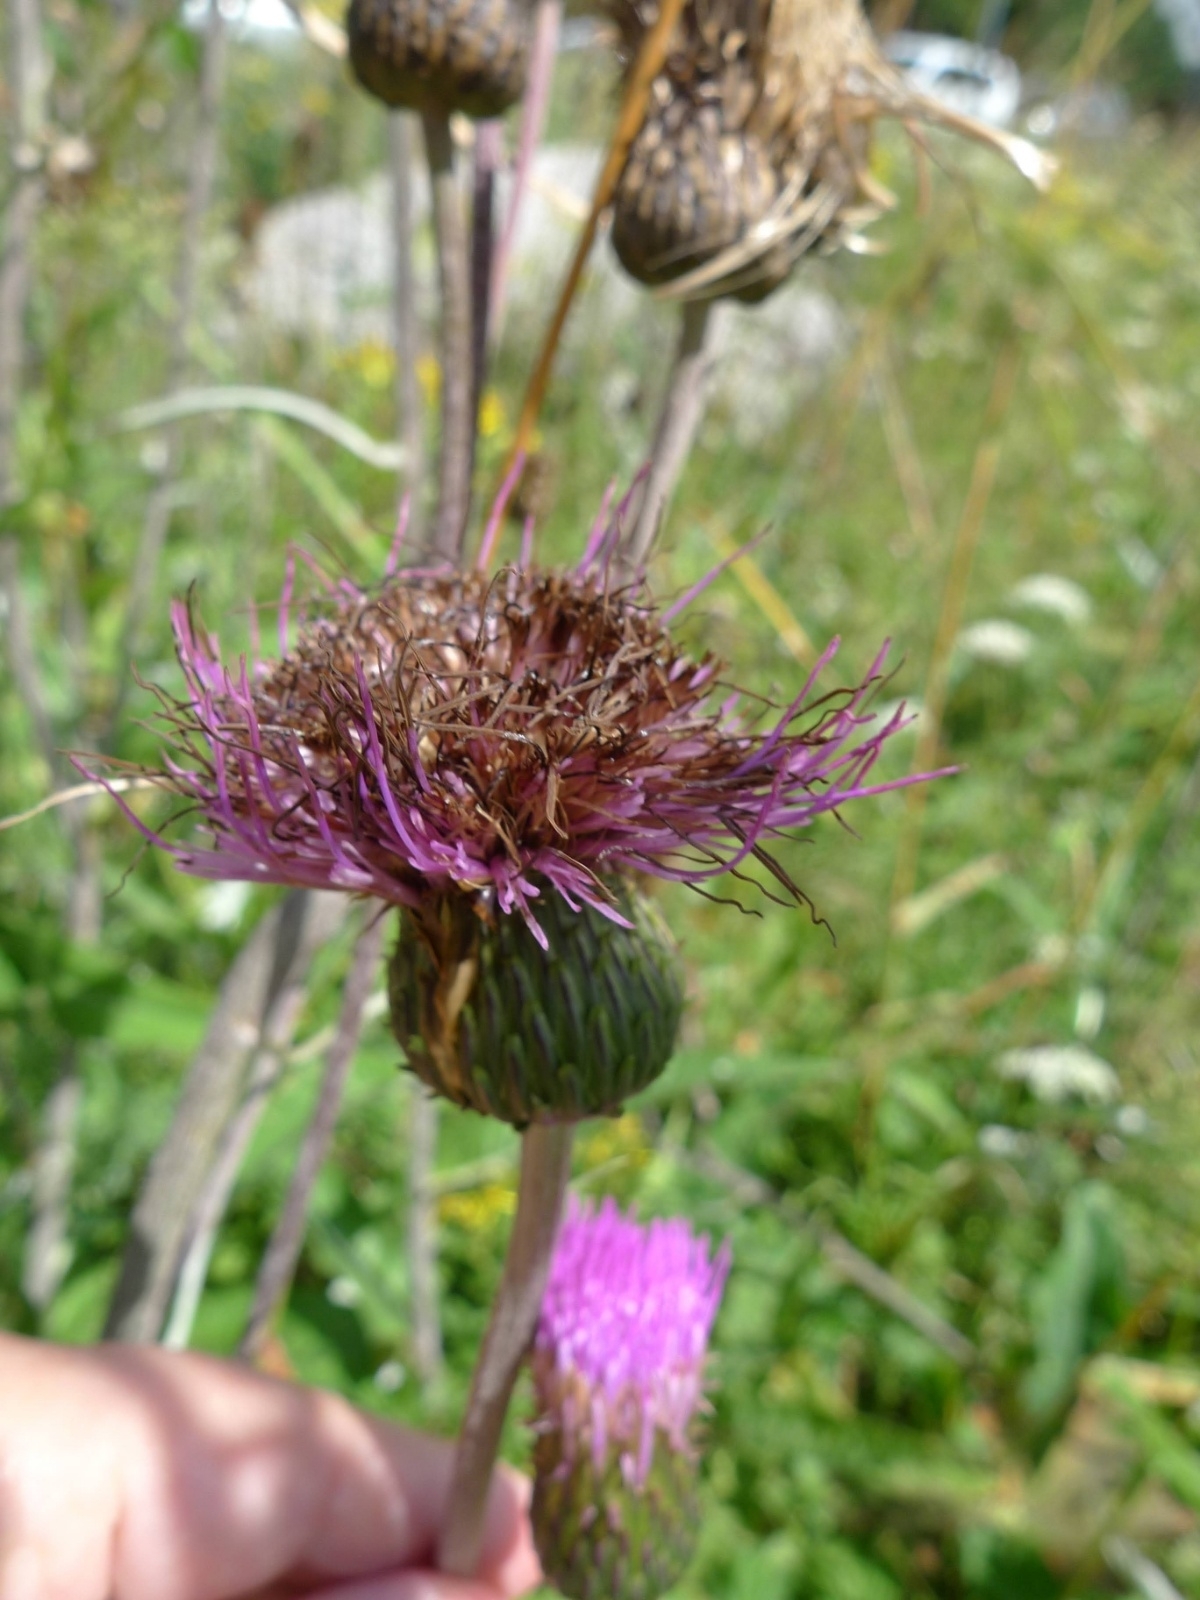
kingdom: Plantae
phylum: Tracheophyta
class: Magnoliopsida
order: Asterales
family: Asteraceae
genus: Cirsium
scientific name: Cirsium heterophyllum
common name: Melancholy thistle
